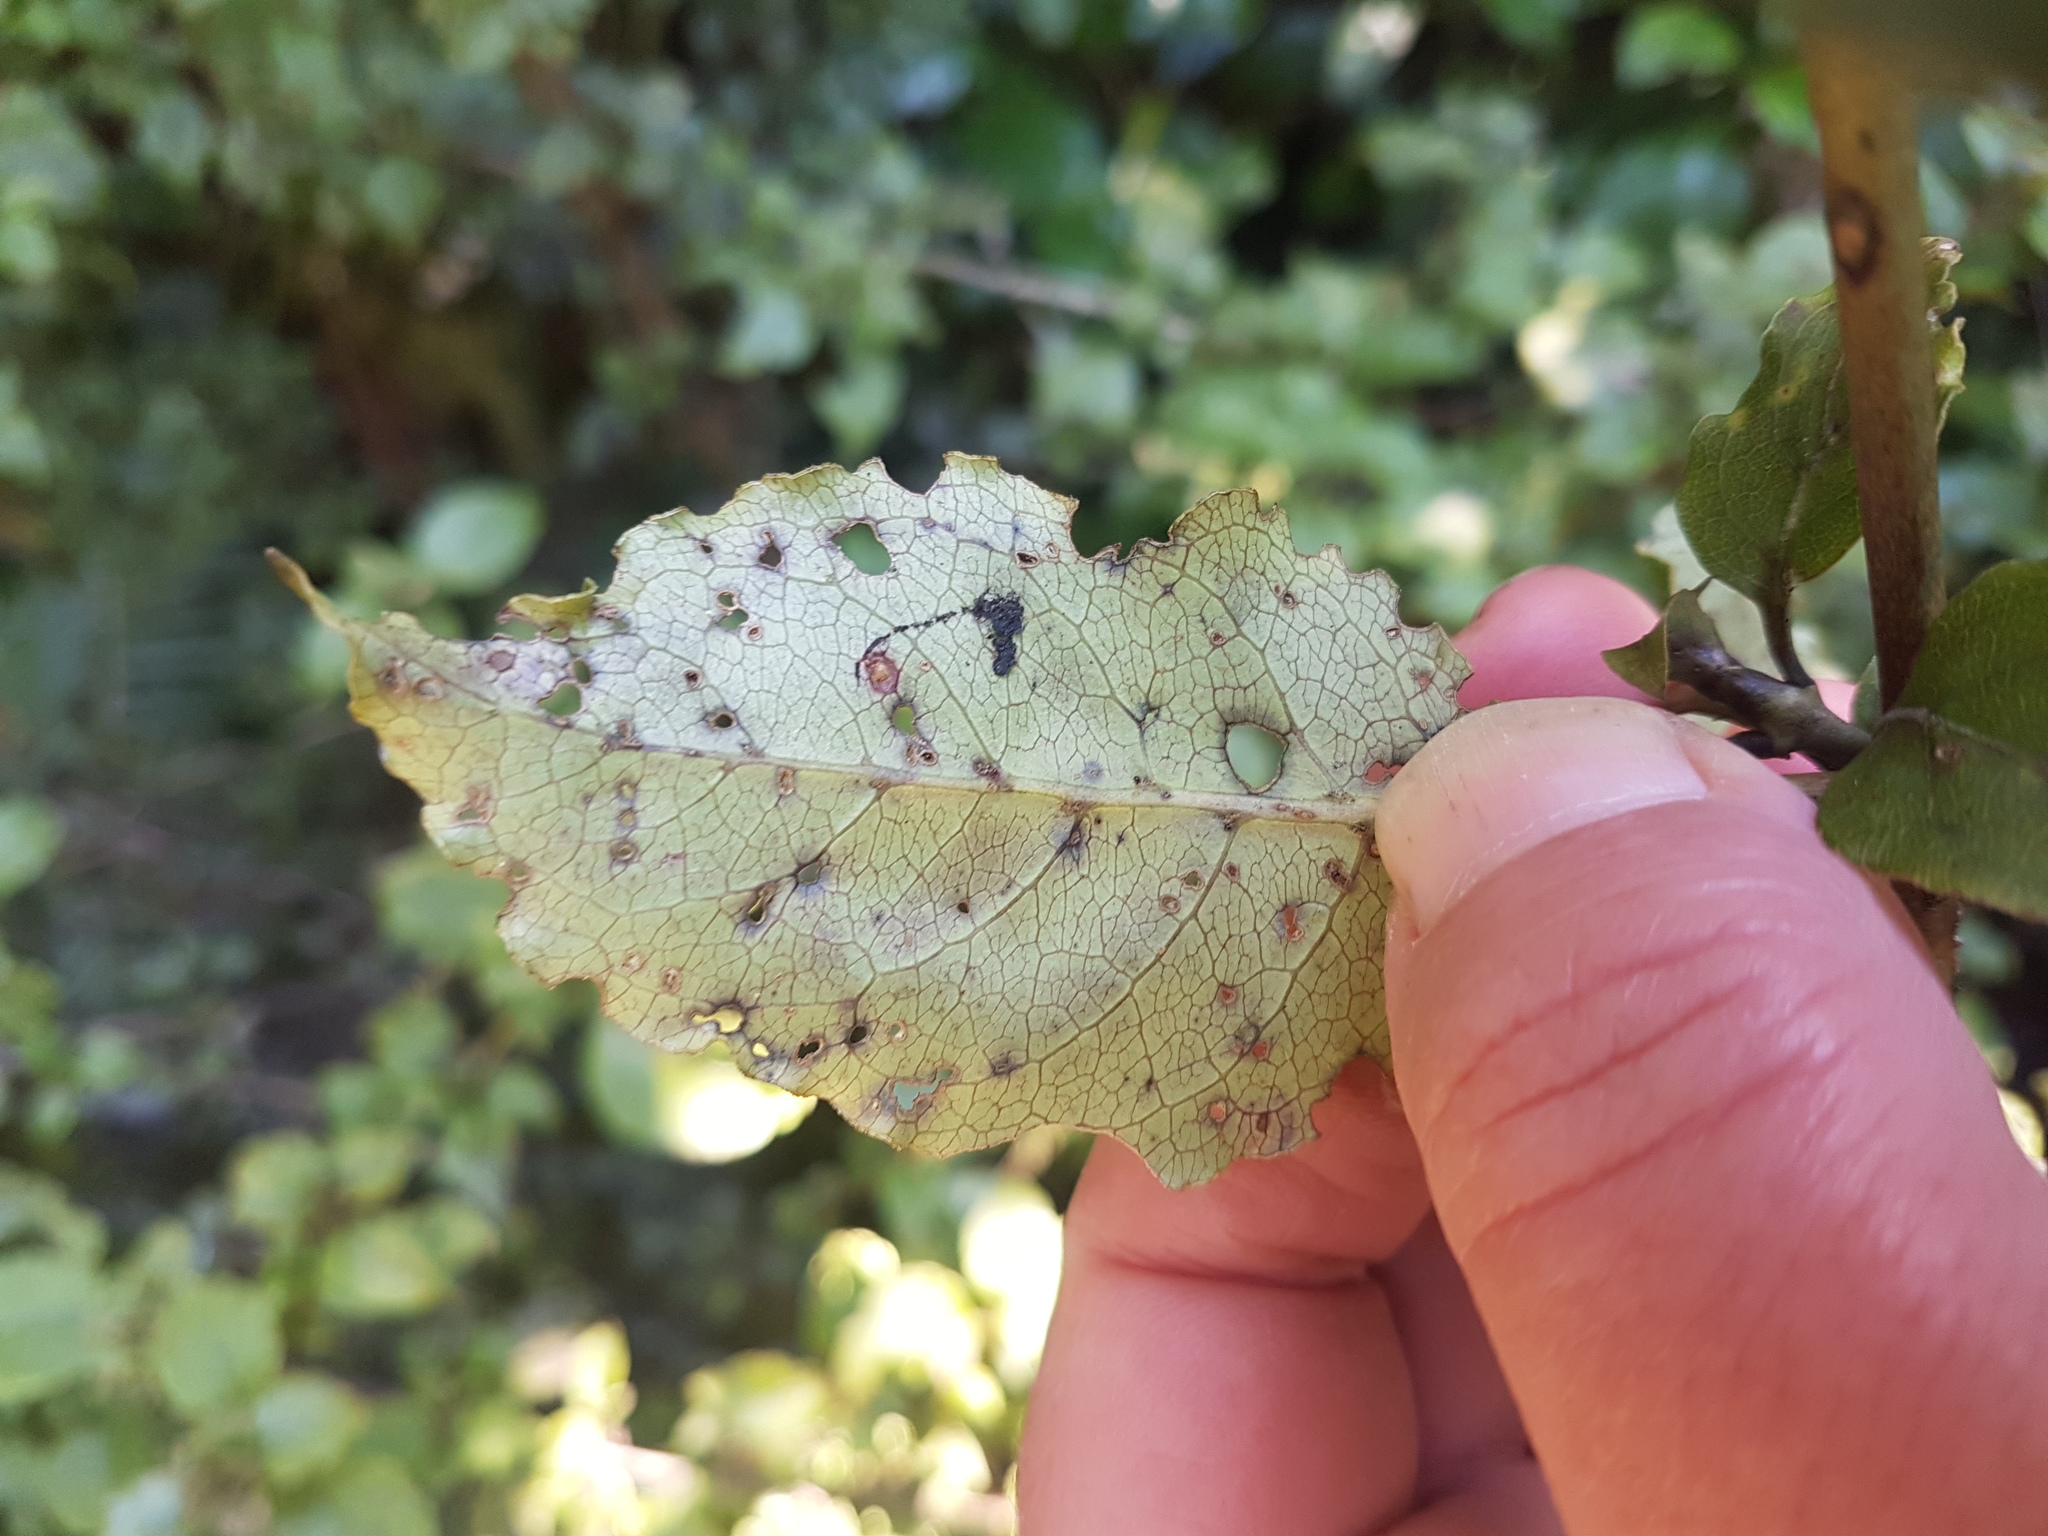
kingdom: Plantae
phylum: Tracheophyta
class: Magnoliopsida
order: Gentianales
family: Rubiaceae
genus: Coprosma
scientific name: Coprosma tenuifolia
